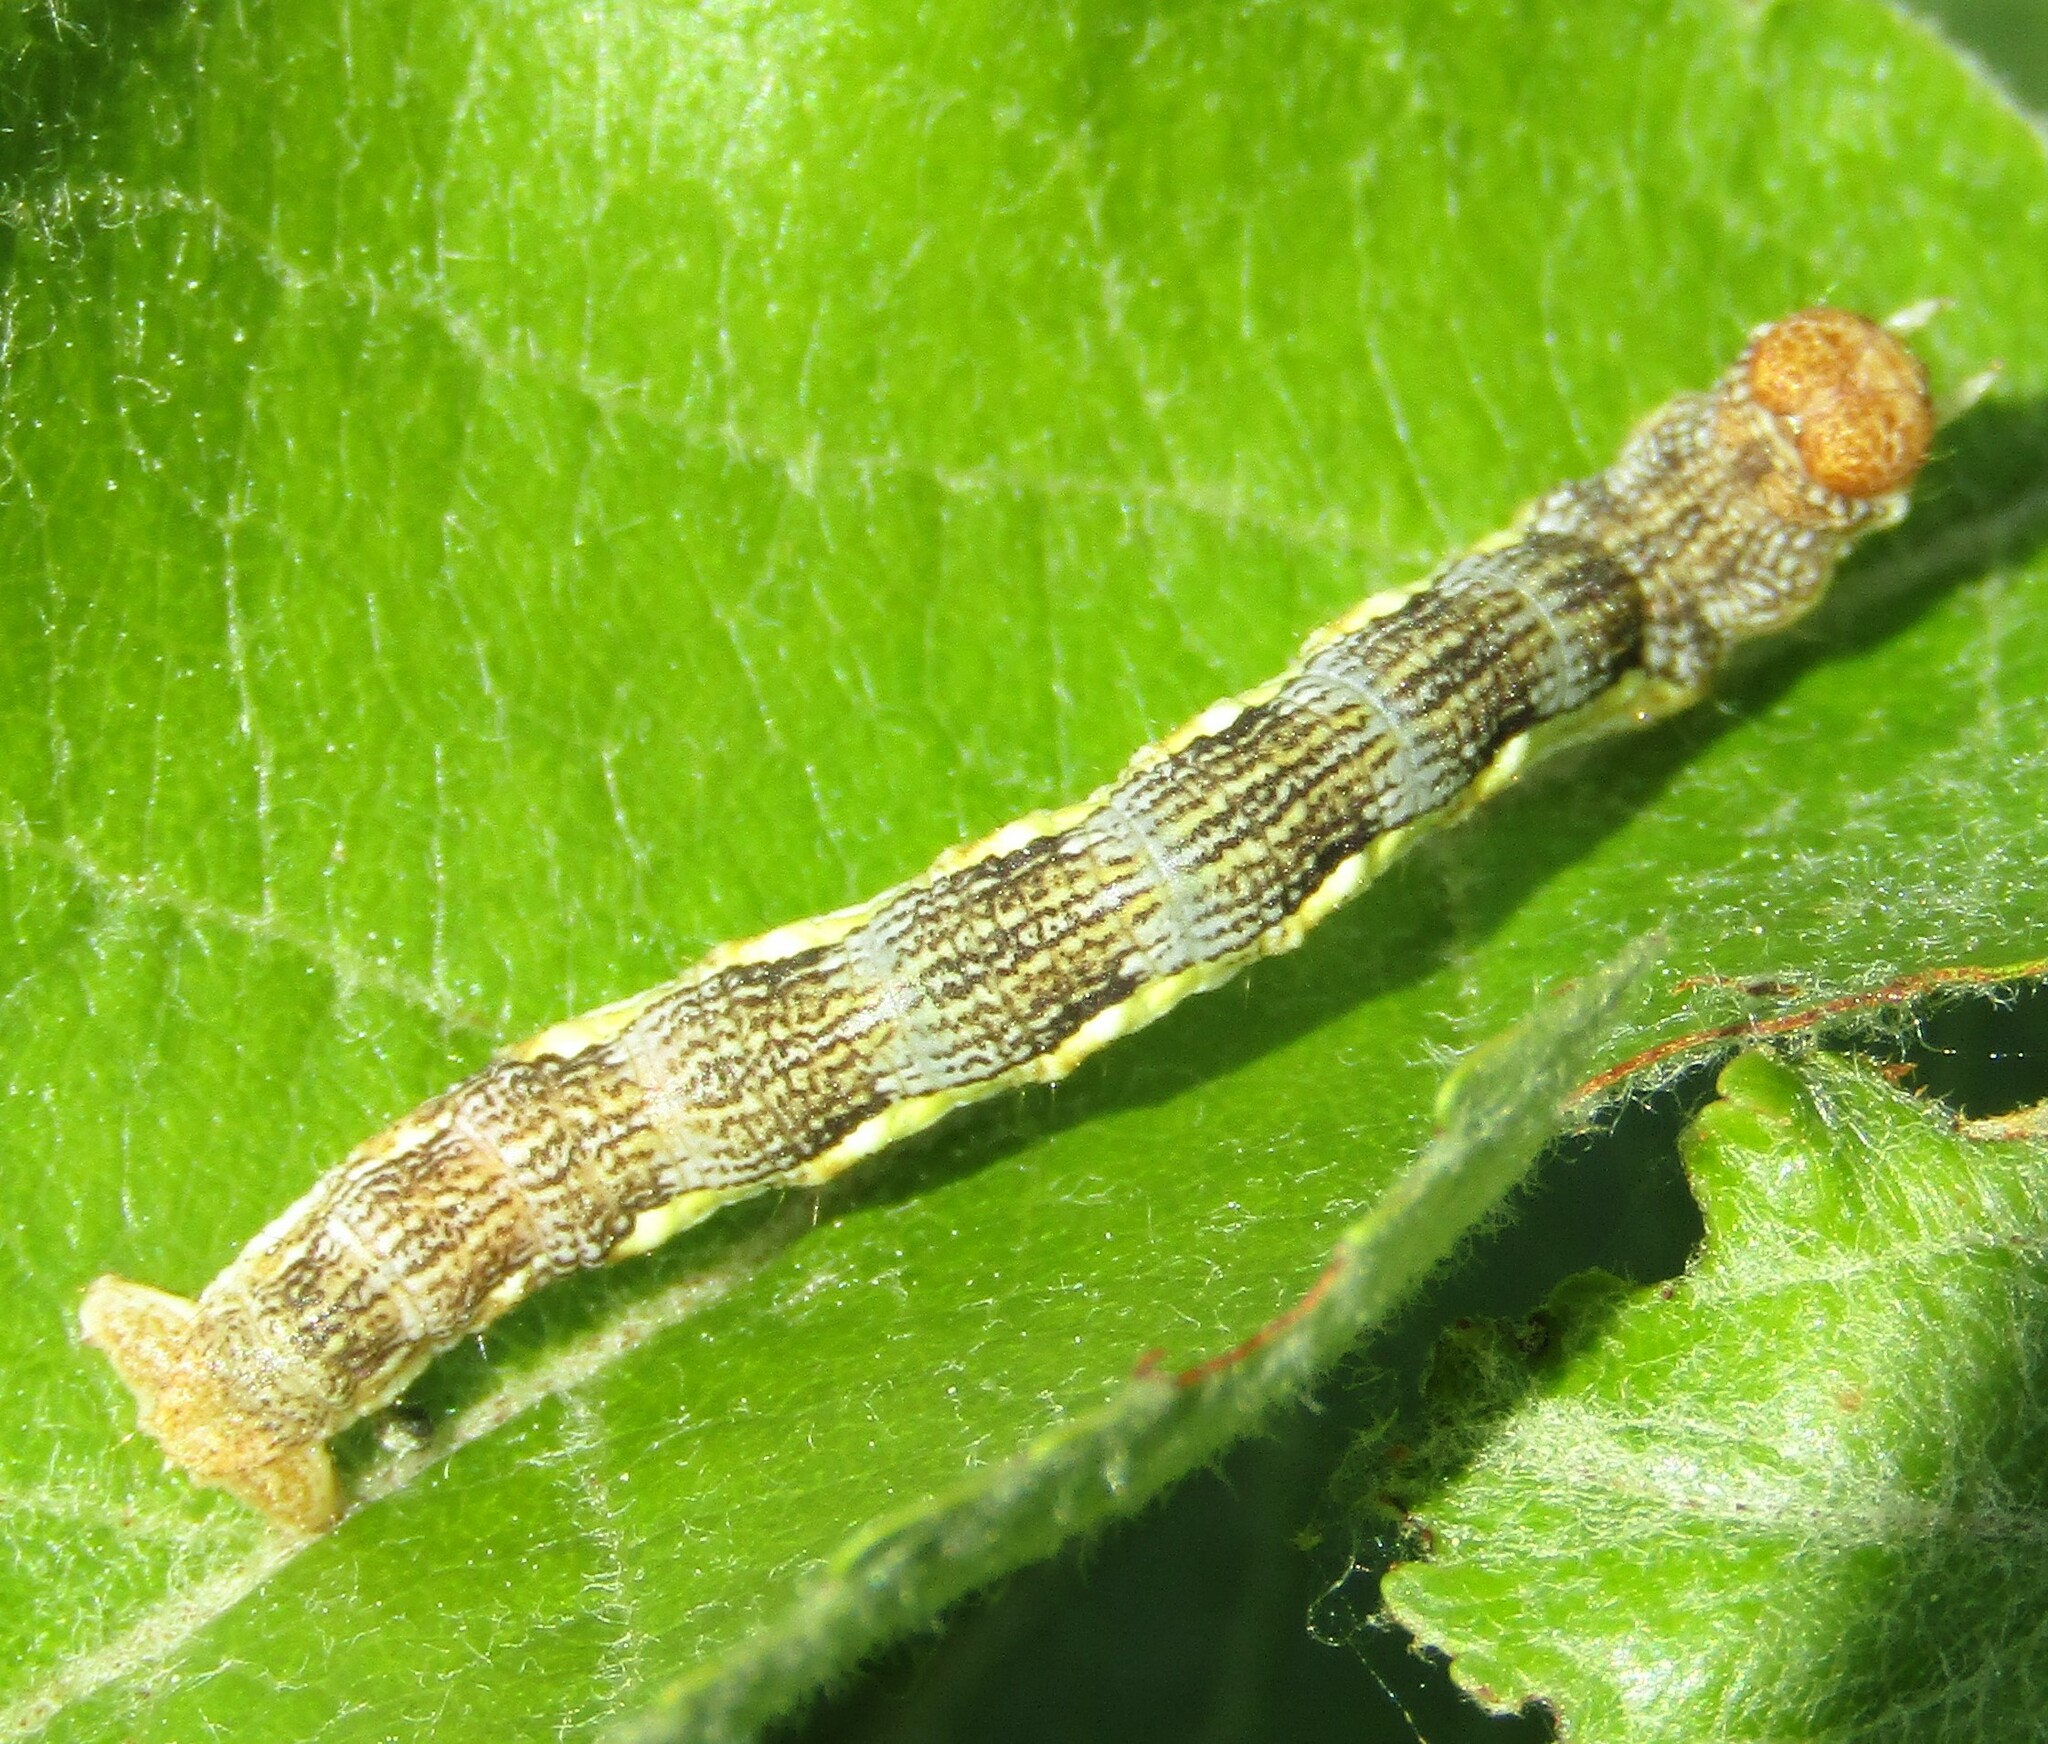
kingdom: Animalia
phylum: Arthropoda
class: Insecta
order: Lepidoptera
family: Geometridae
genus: Erannis
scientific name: Erannis defoliaria
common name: Mottled umber
